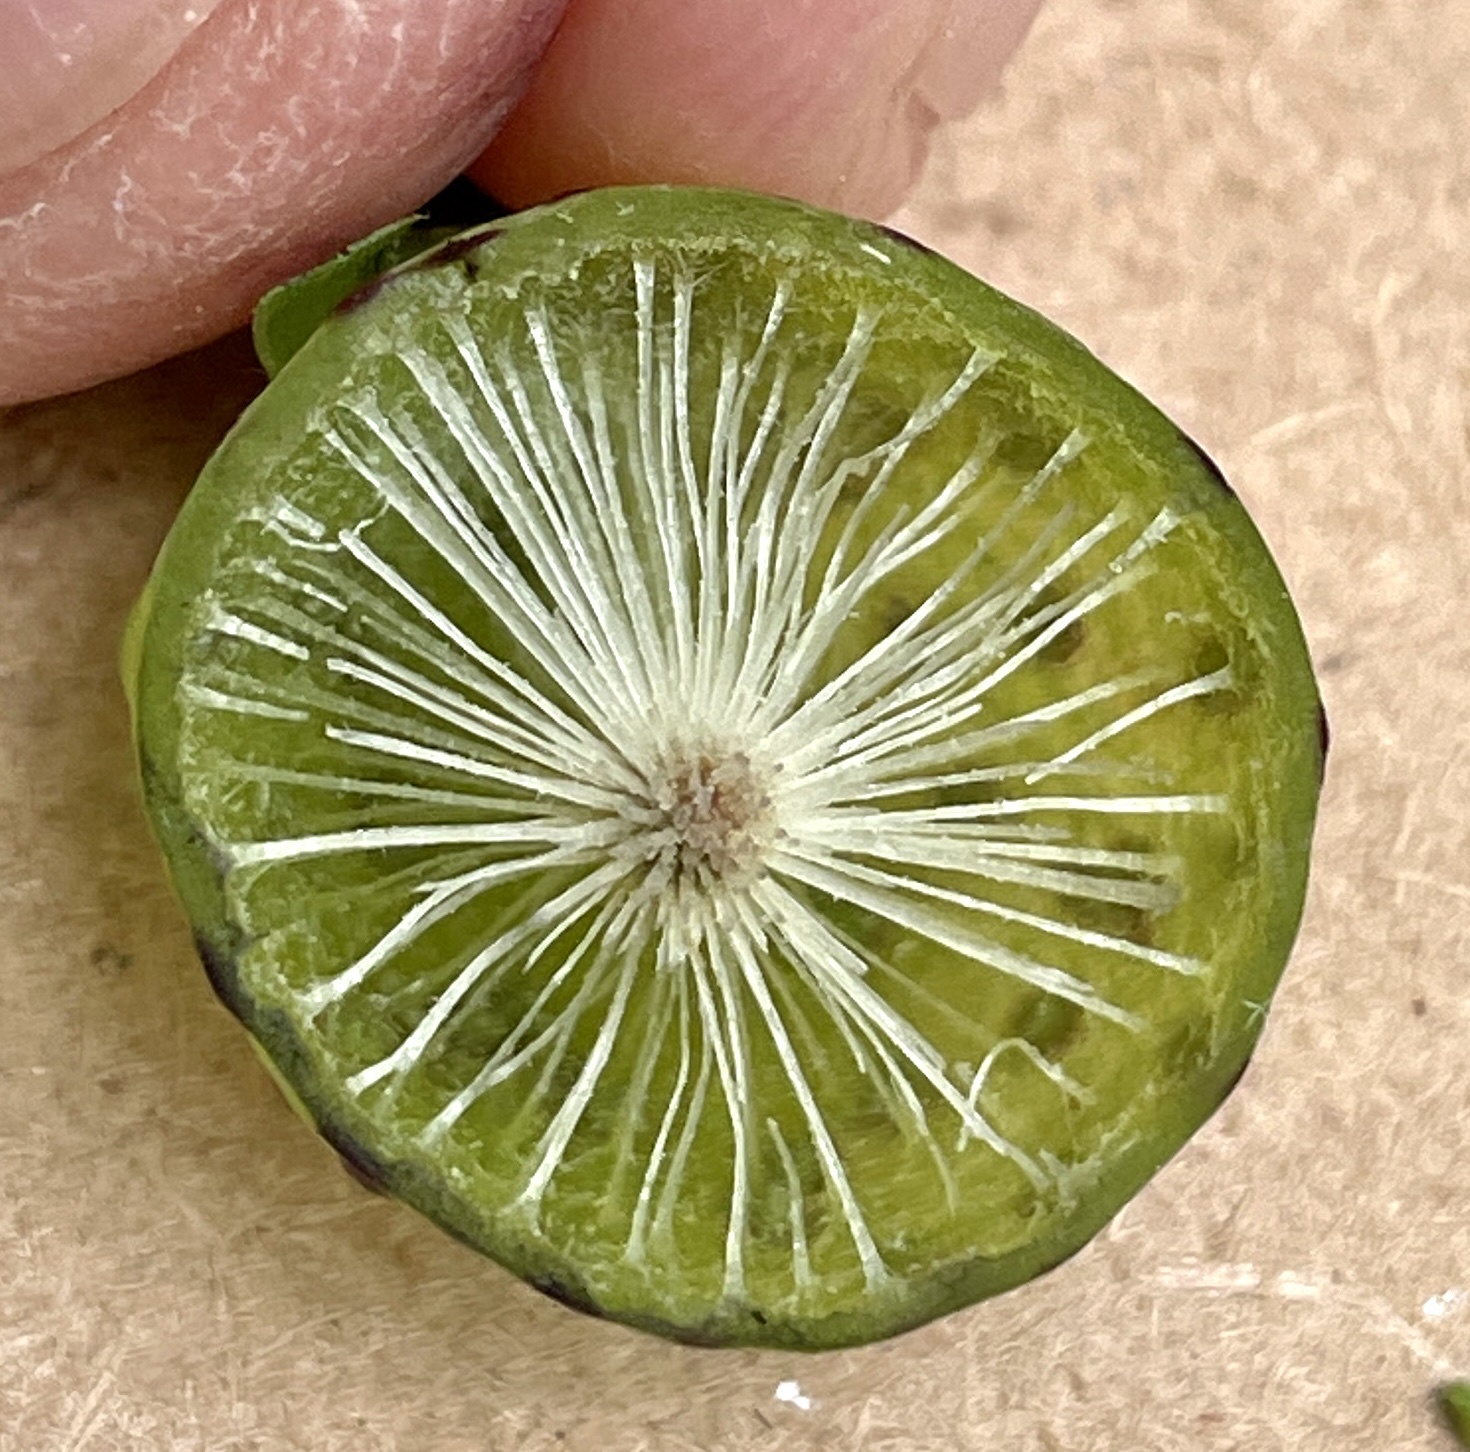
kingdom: Animalia
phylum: Arthropoda
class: Insecta
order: Hymenoptera
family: Cynipidae
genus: Amphibolips
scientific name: Amphibolips
